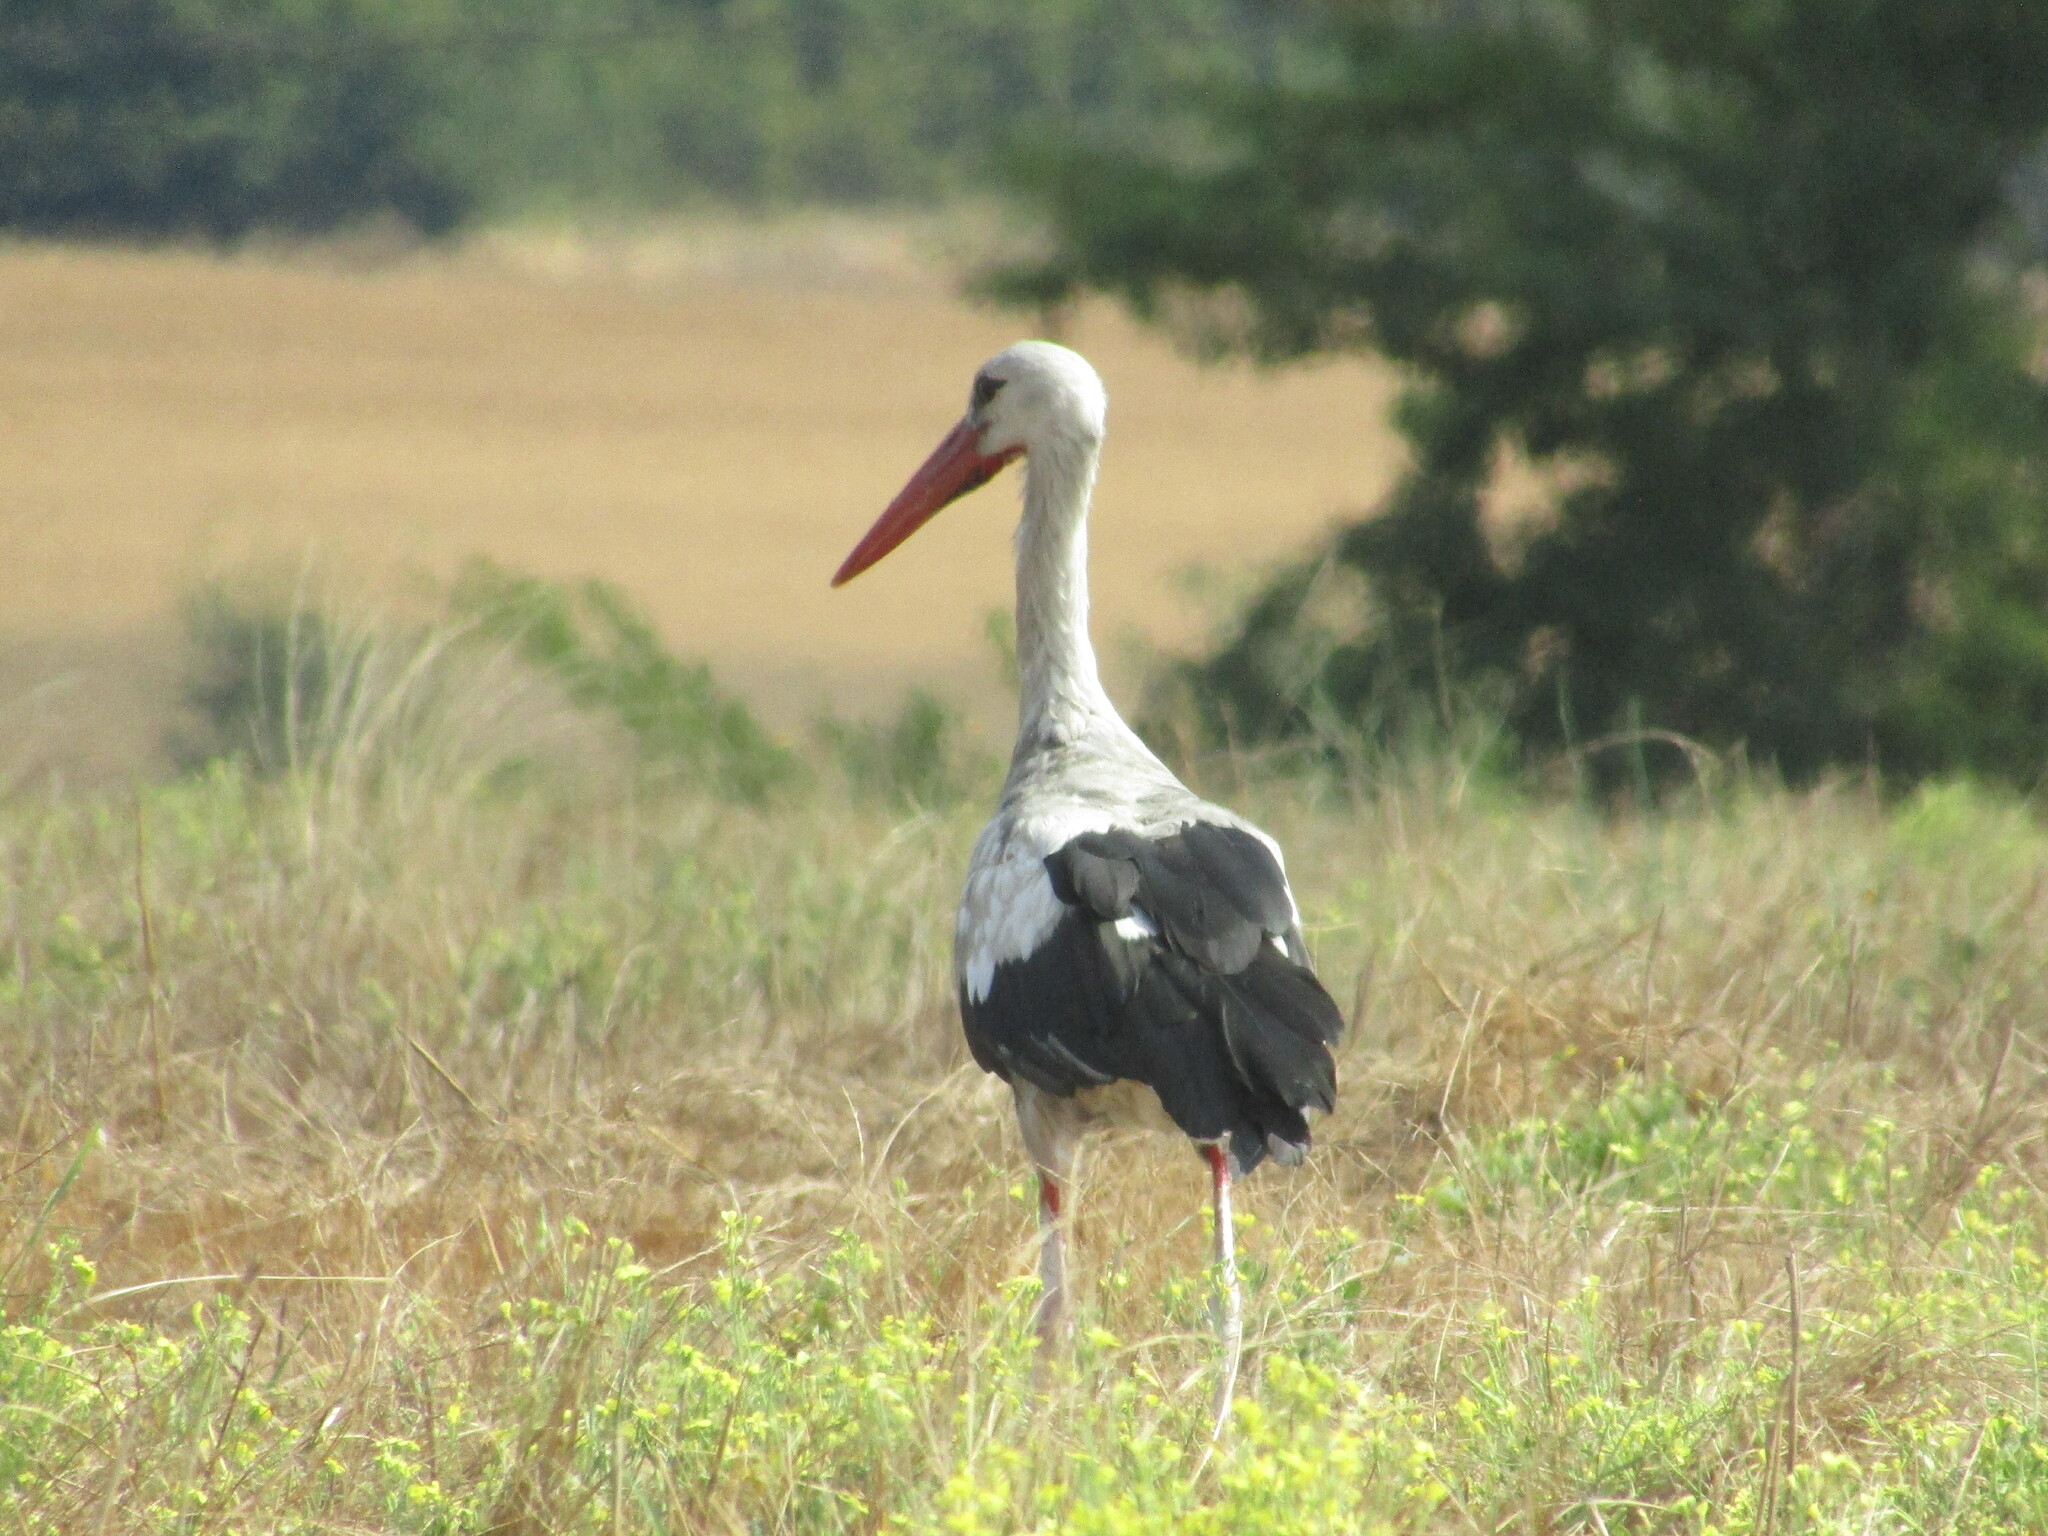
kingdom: Animalia
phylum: Chordata
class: Aves
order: Ciconiiformes
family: Ciconiidae
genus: Ciconia
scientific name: Ciconia ciconia
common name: White stork
